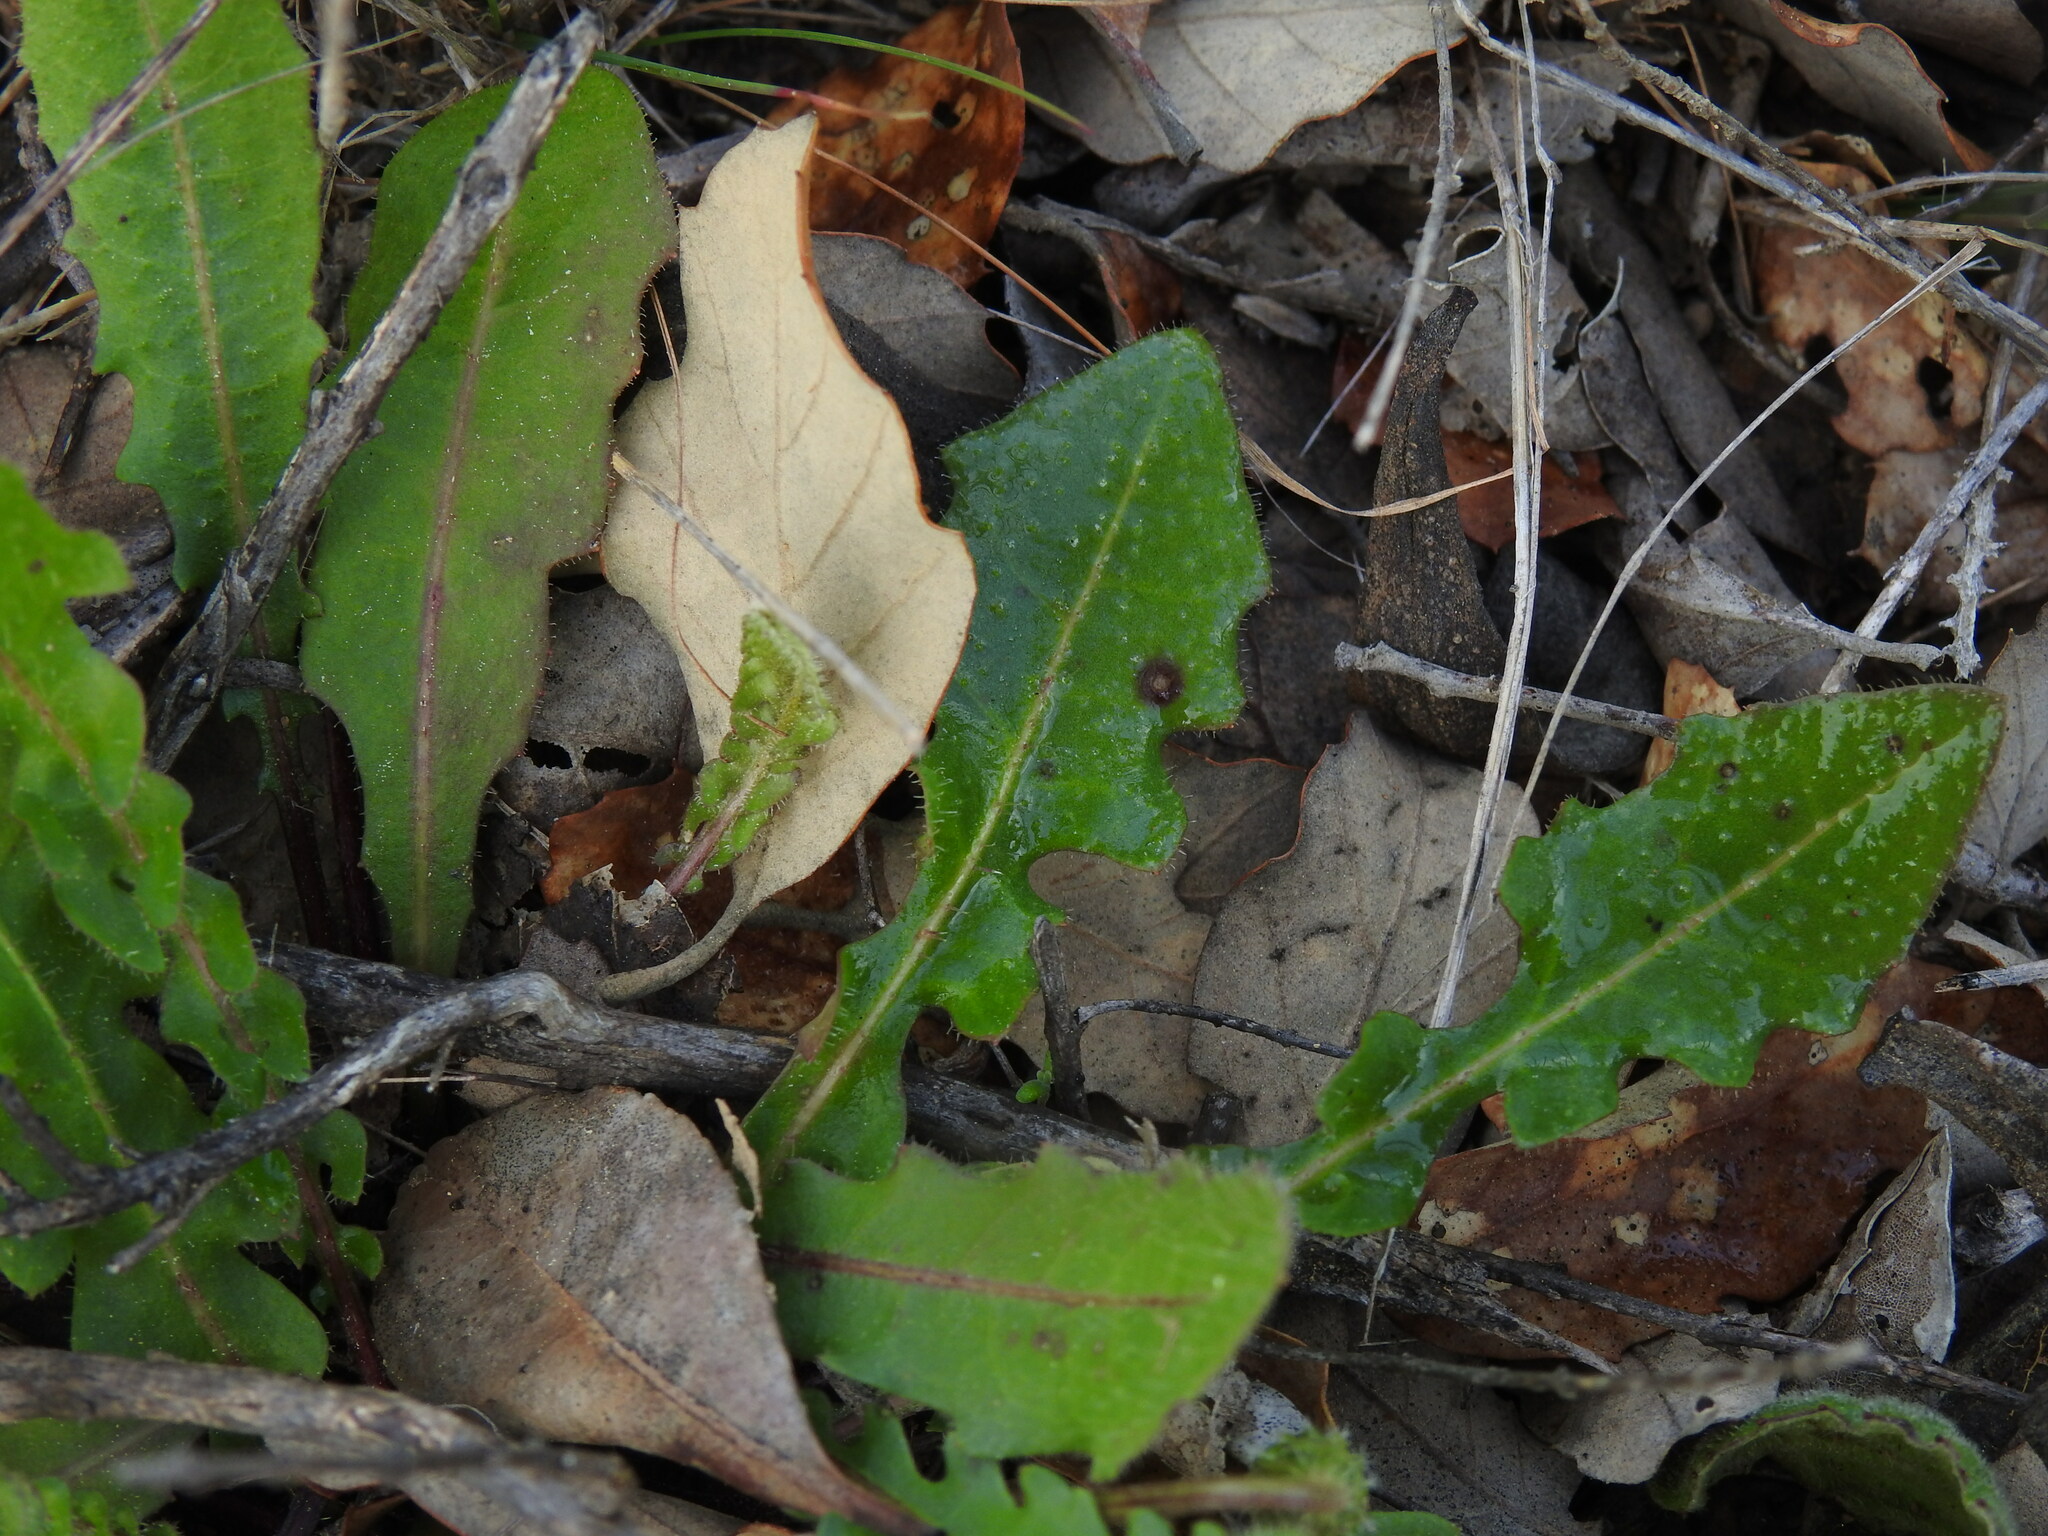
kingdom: Plantae
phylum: Tracheophyta
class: Magnoliopsida
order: Asterales
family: Asteraceae
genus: Leontodon
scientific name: Leontodon tuberosus
